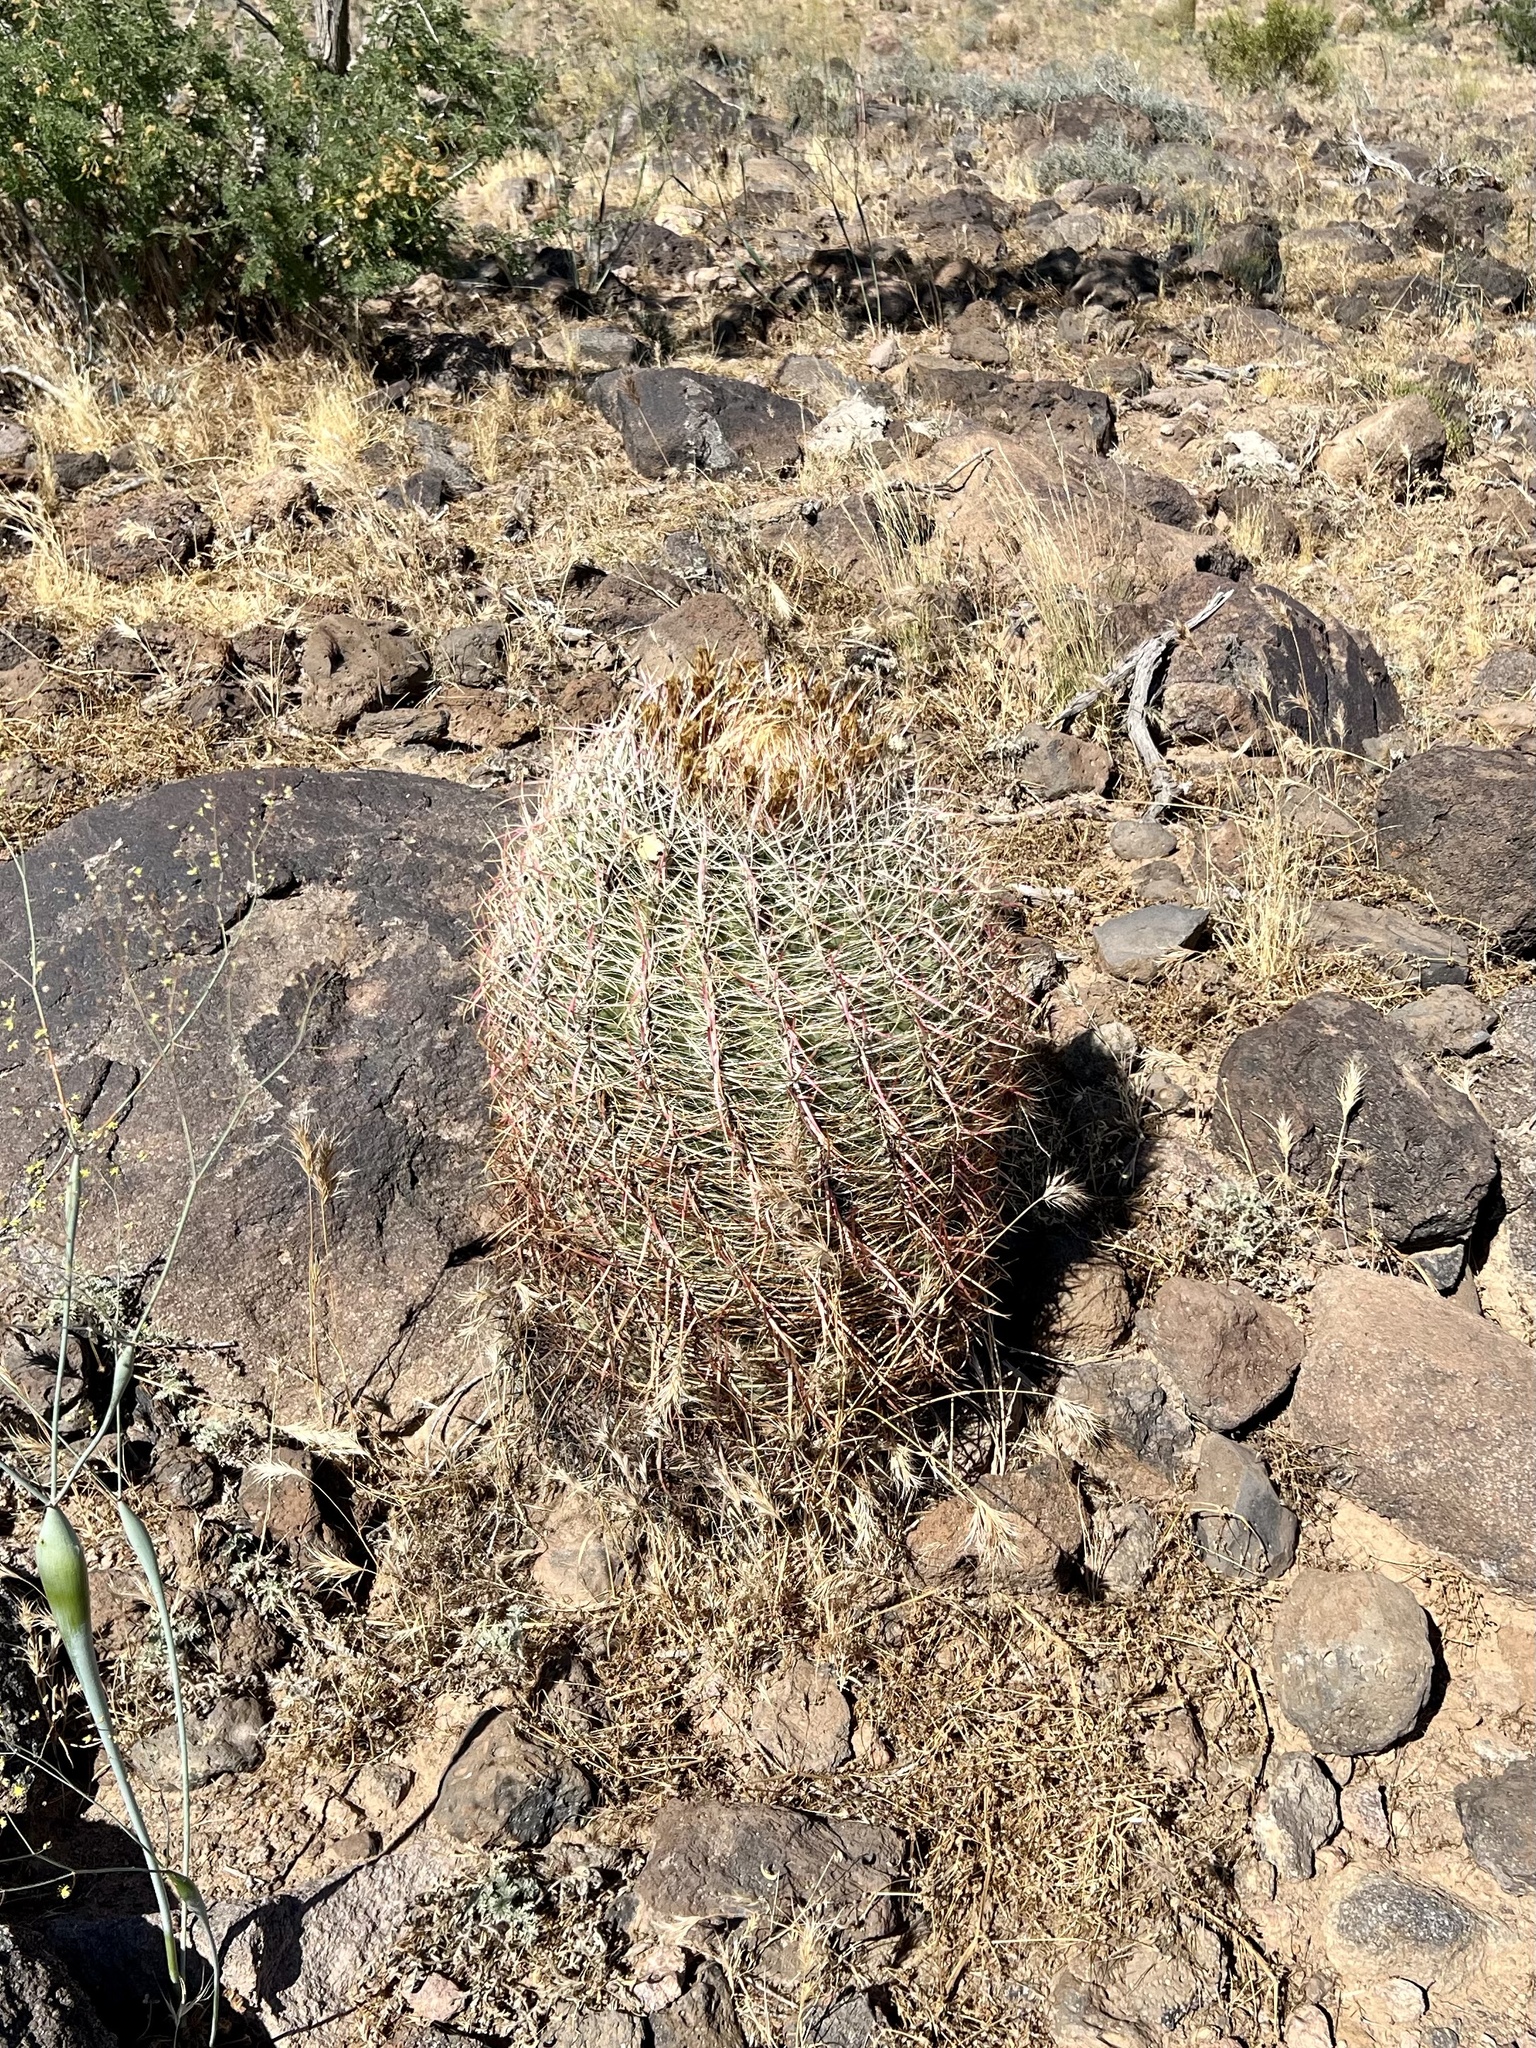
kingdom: Plantae
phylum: Tracheophyta
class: Magnoliopsida
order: Caryophyllales
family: Cactaceae
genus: Ferocactus
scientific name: Ferocactus cylindraceus
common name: California barrel cactus
